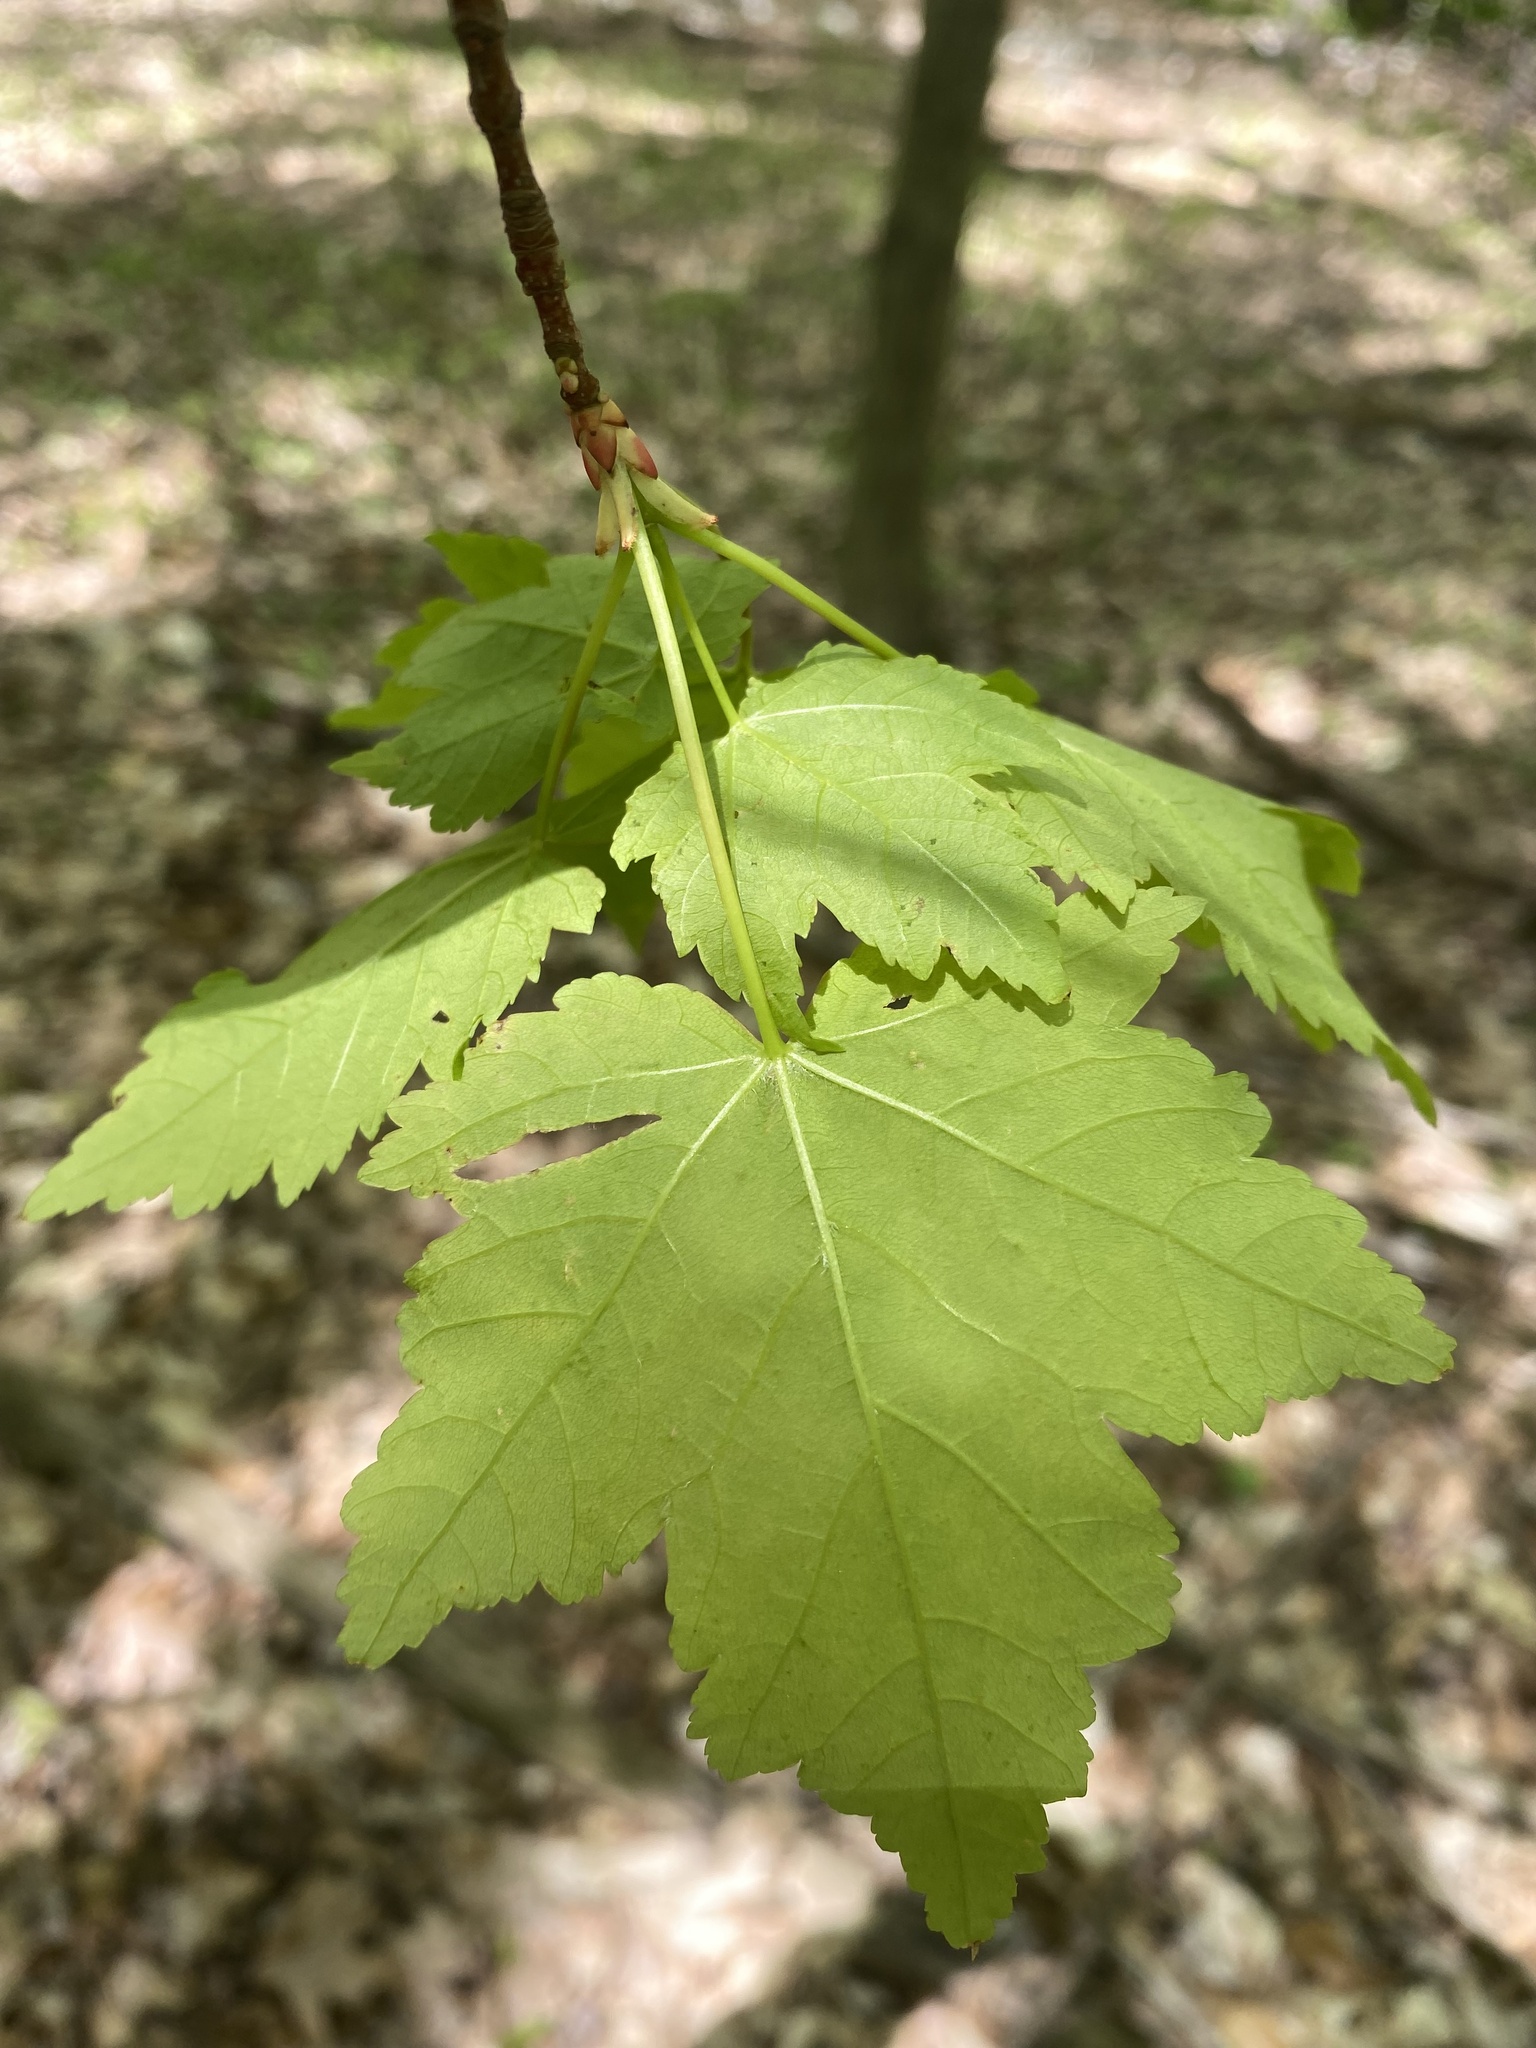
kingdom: Plantae
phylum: Tracheophyta
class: Magnoliopsida
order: Sapindales
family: Sapindaceae
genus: Acer
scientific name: Acer freemanii
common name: Freeman maple
